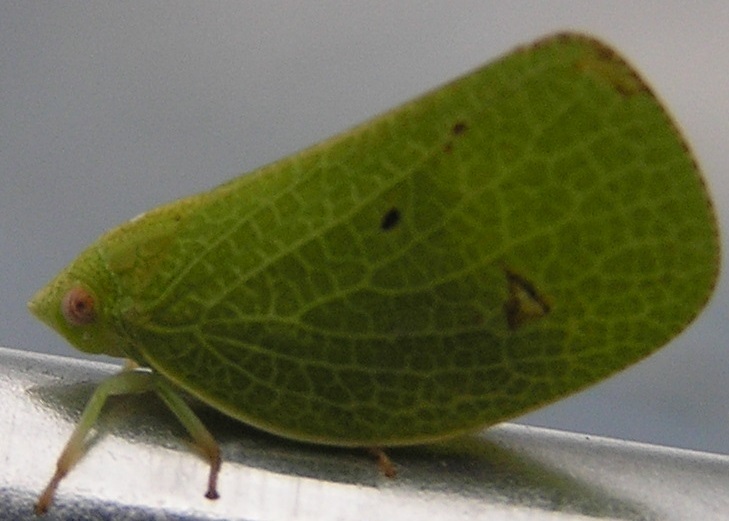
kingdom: Animalia
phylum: Arthropoda
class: Insecta
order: Hemiptera
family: Acanaloniidae
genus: Acanalonia
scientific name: Acanalonia conica
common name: Green cone-headed planthopper
